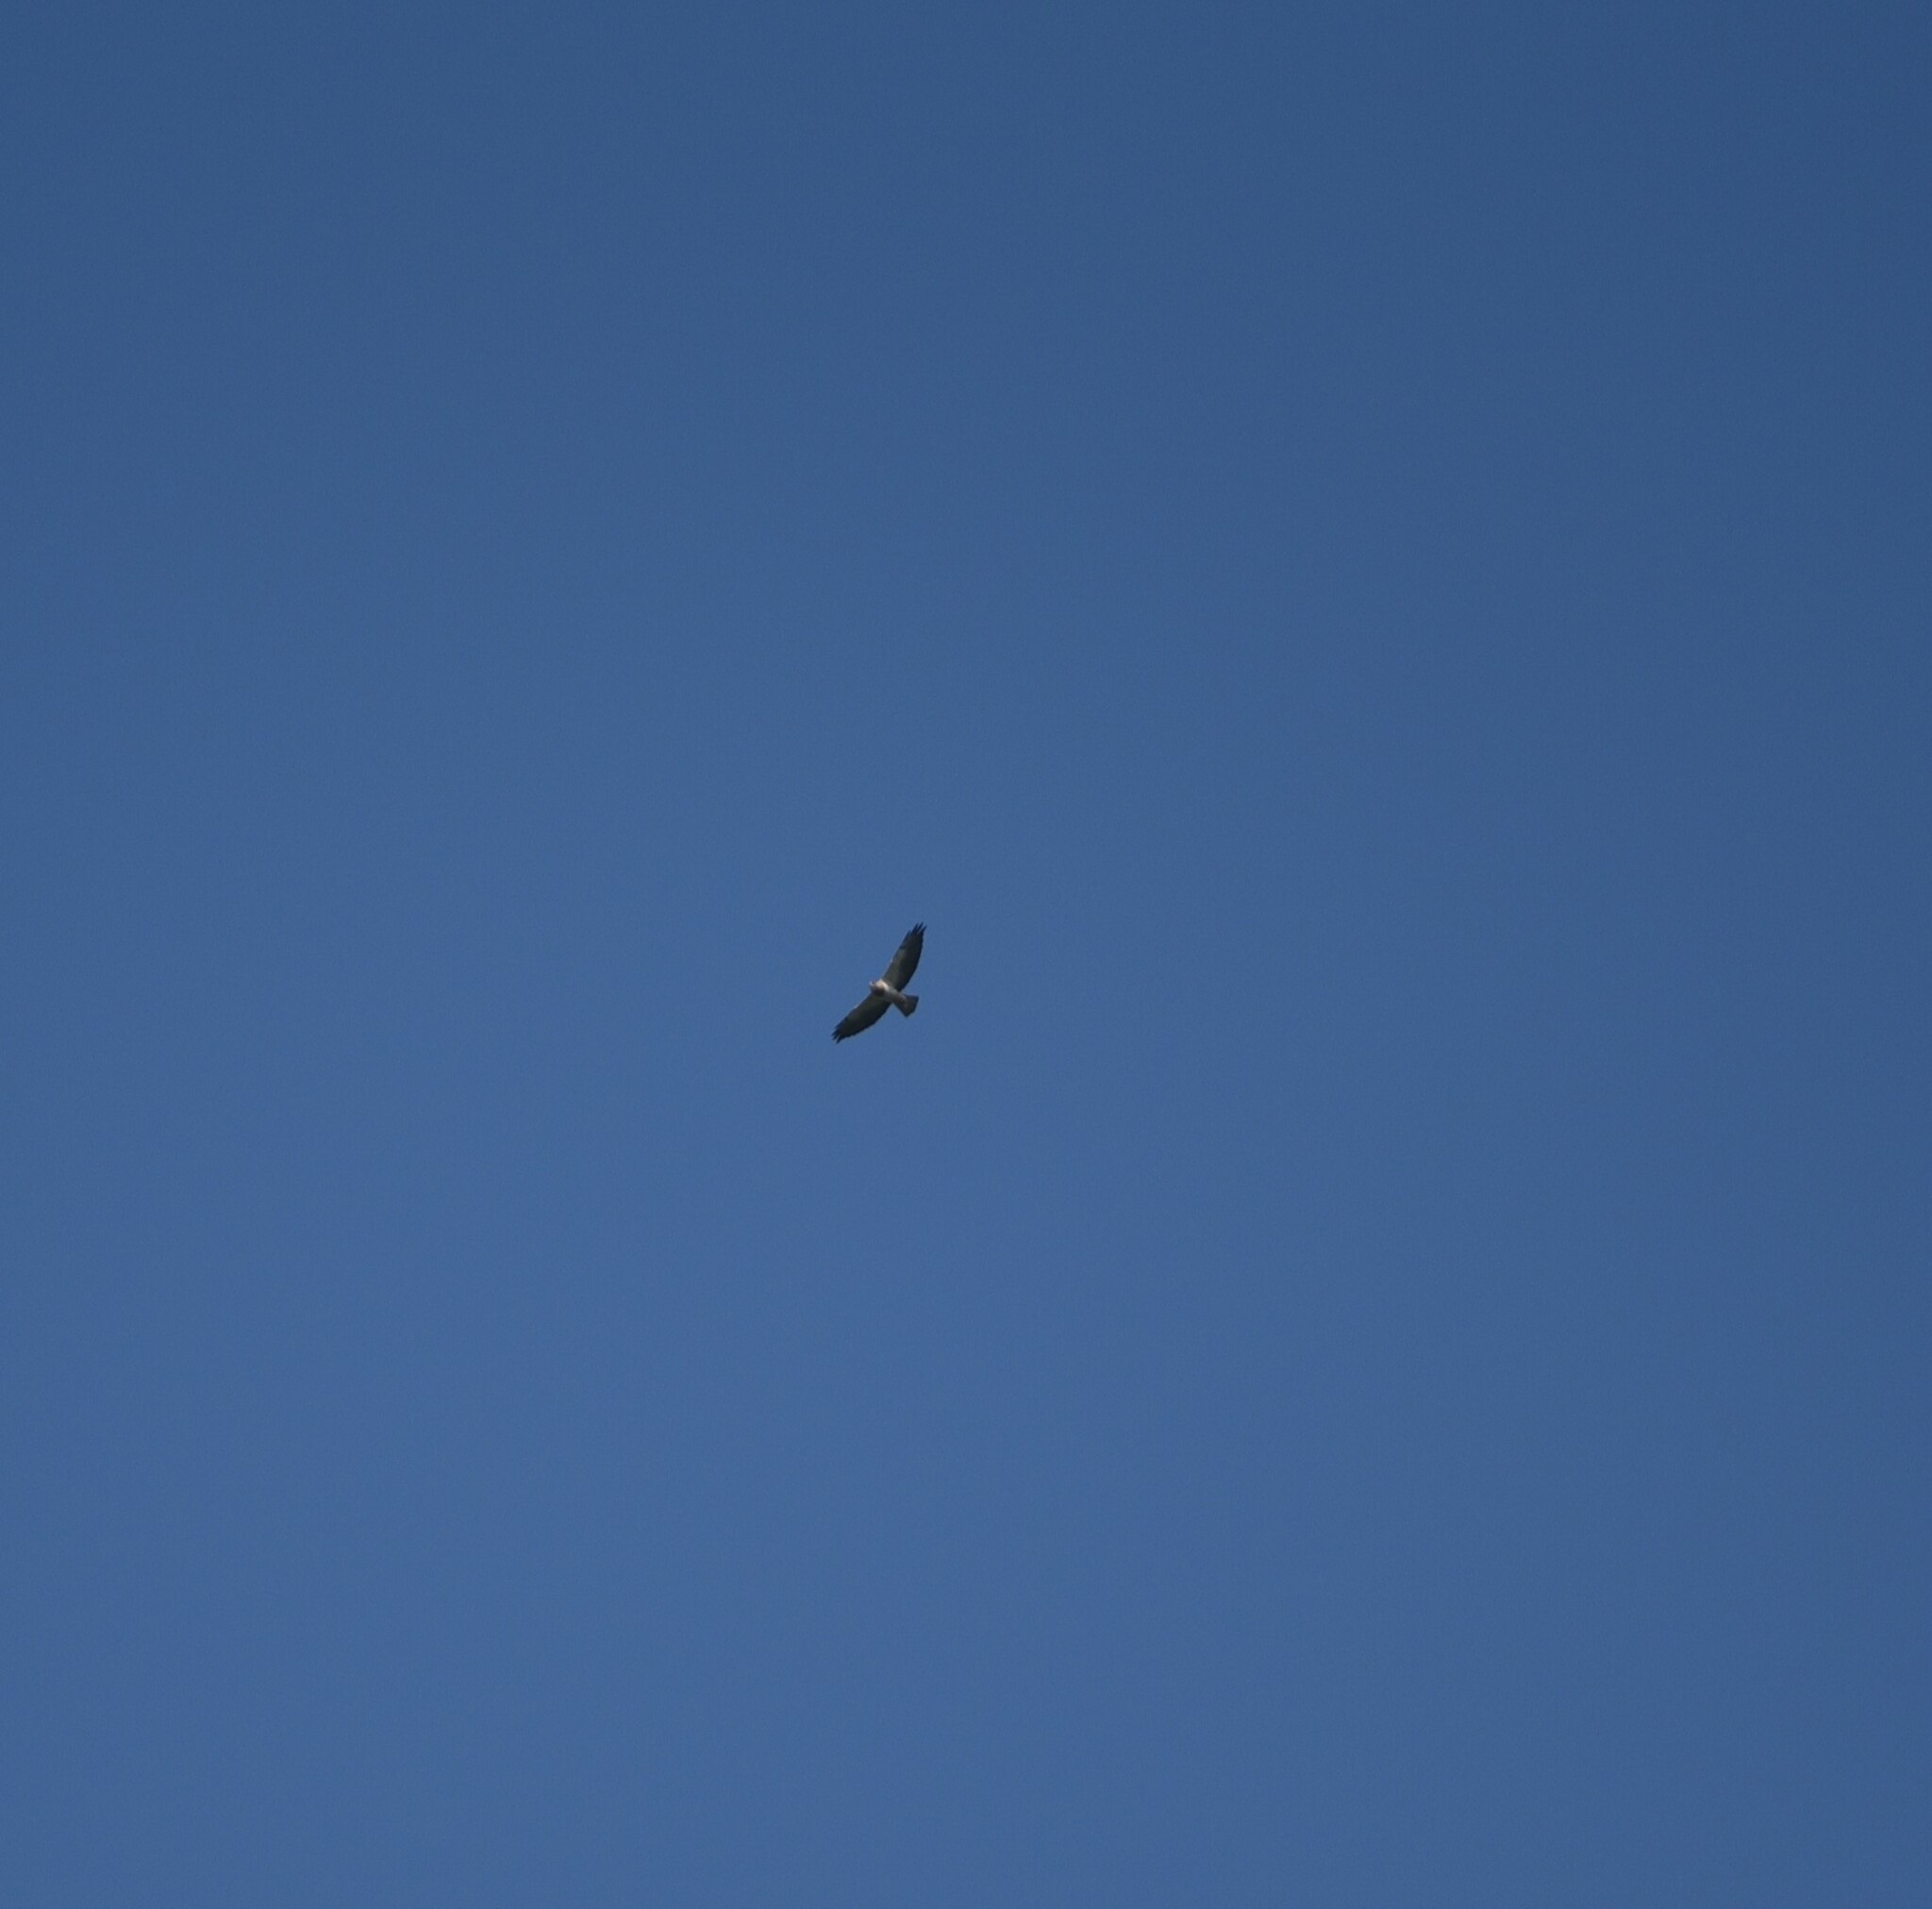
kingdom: Animalia
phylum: Chordata
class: Aves
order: Accipitriformes
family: Accipitridae
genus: Buteo
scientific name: Buteo swainsoni
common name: Swainson's hawk
